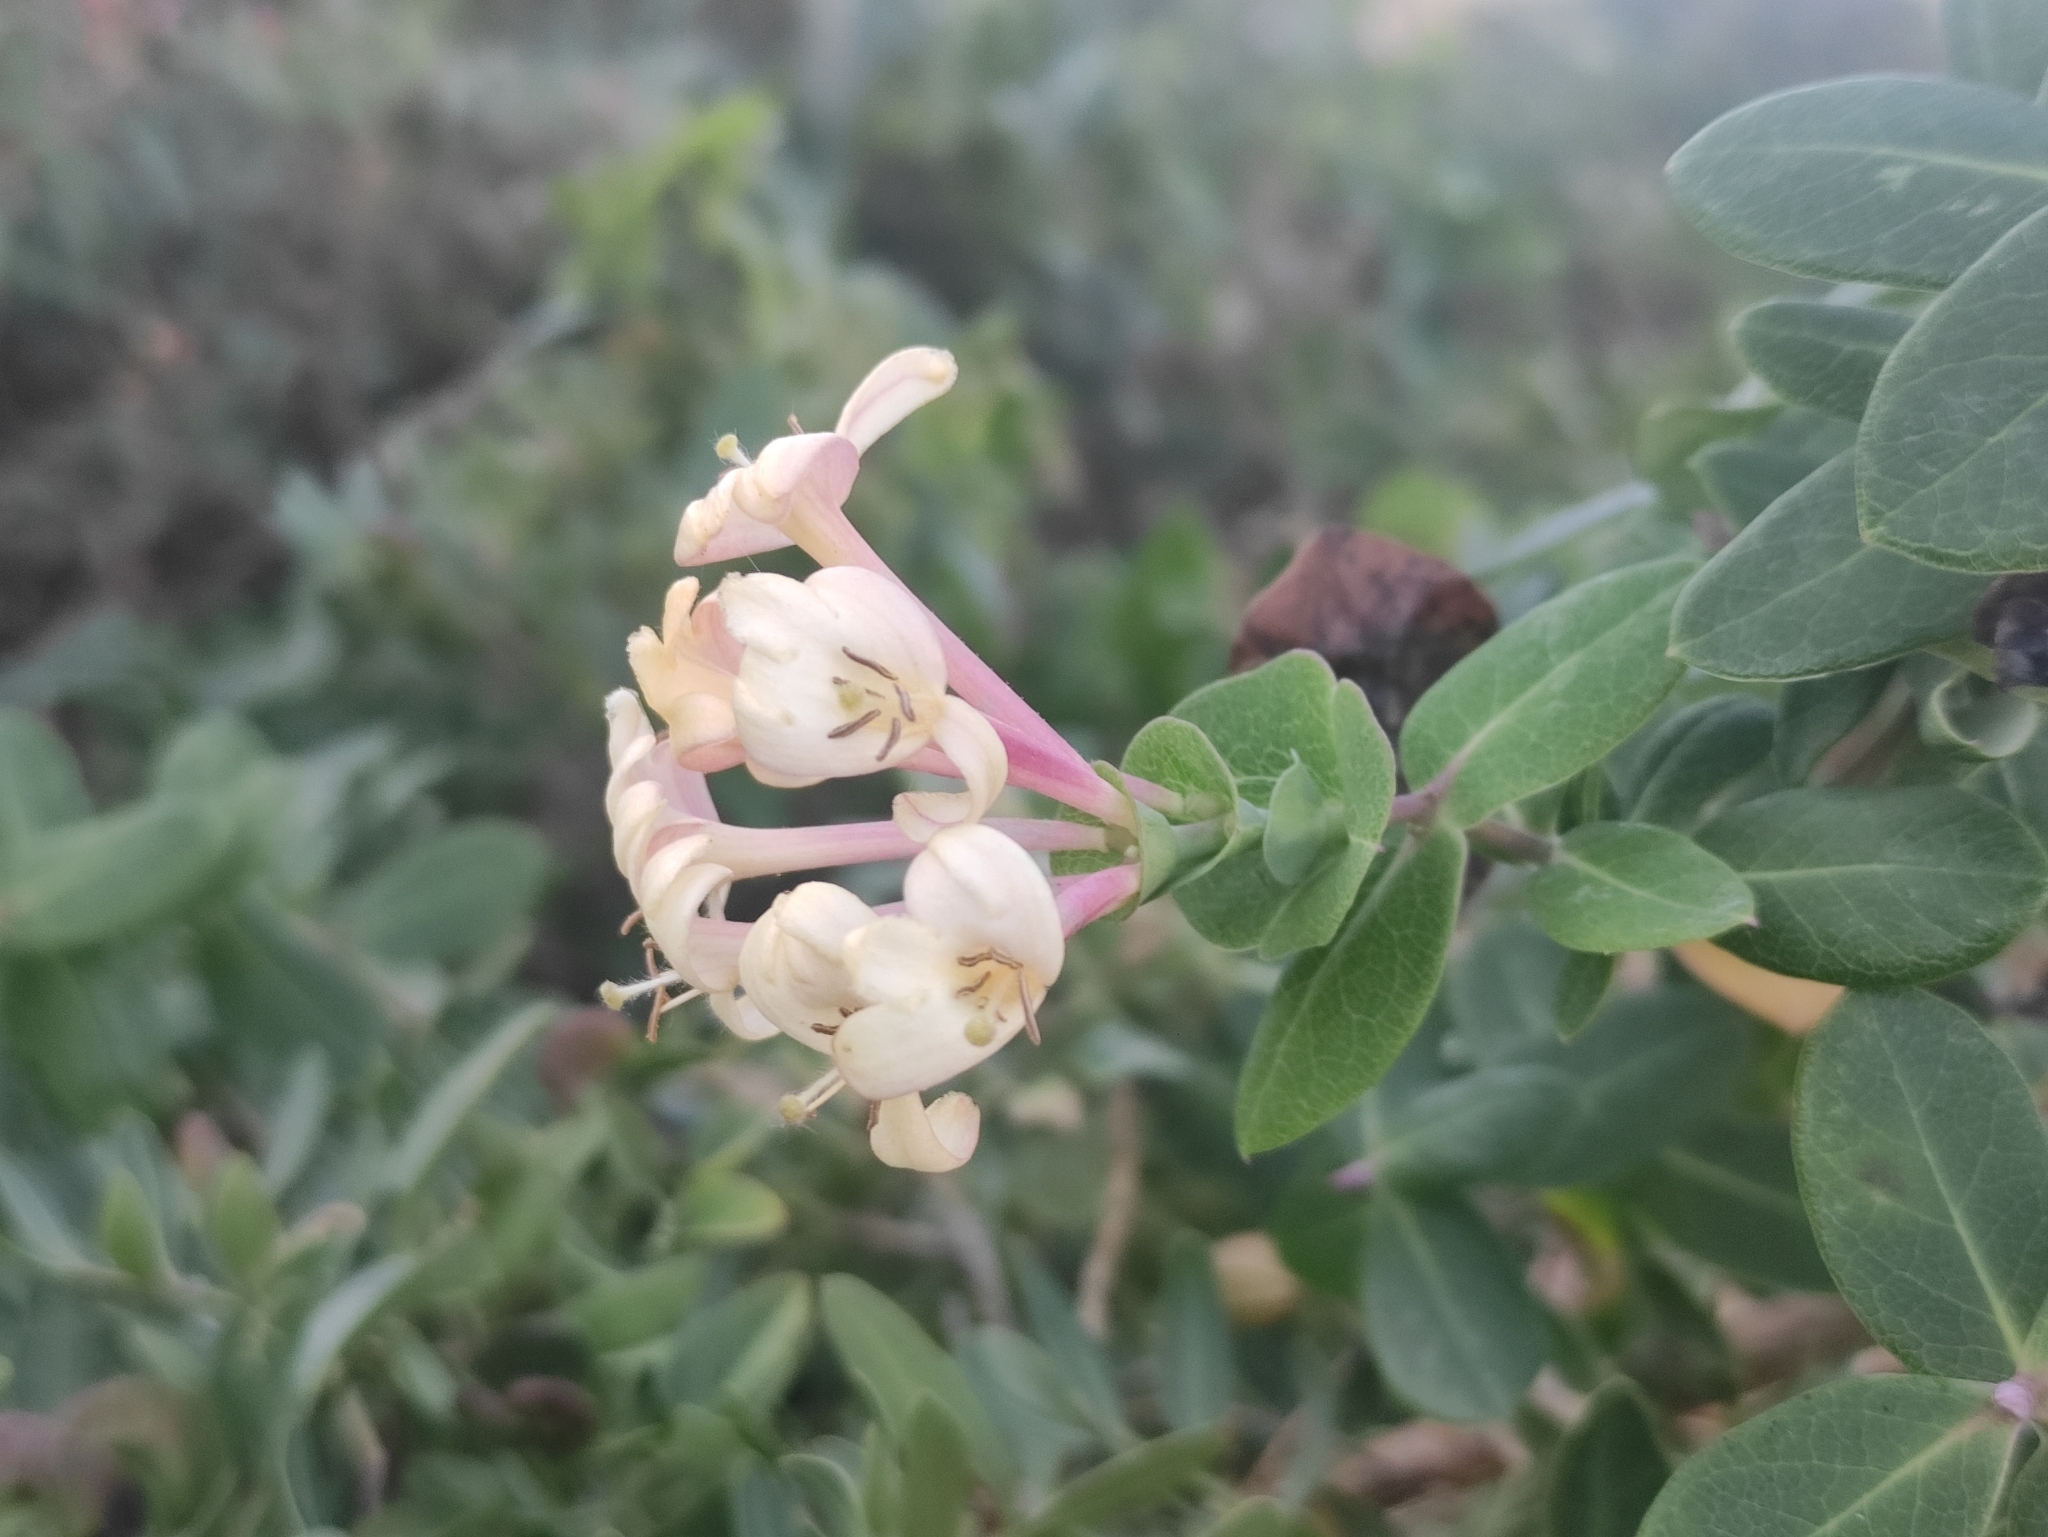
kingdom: Plantae
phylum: Tracheophyta
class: Magnoliopsida
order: Dipsacales
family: Caprifoliaceae
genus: Lonicera
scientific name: Lonicera implexa
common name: Minorca honeysuckle
